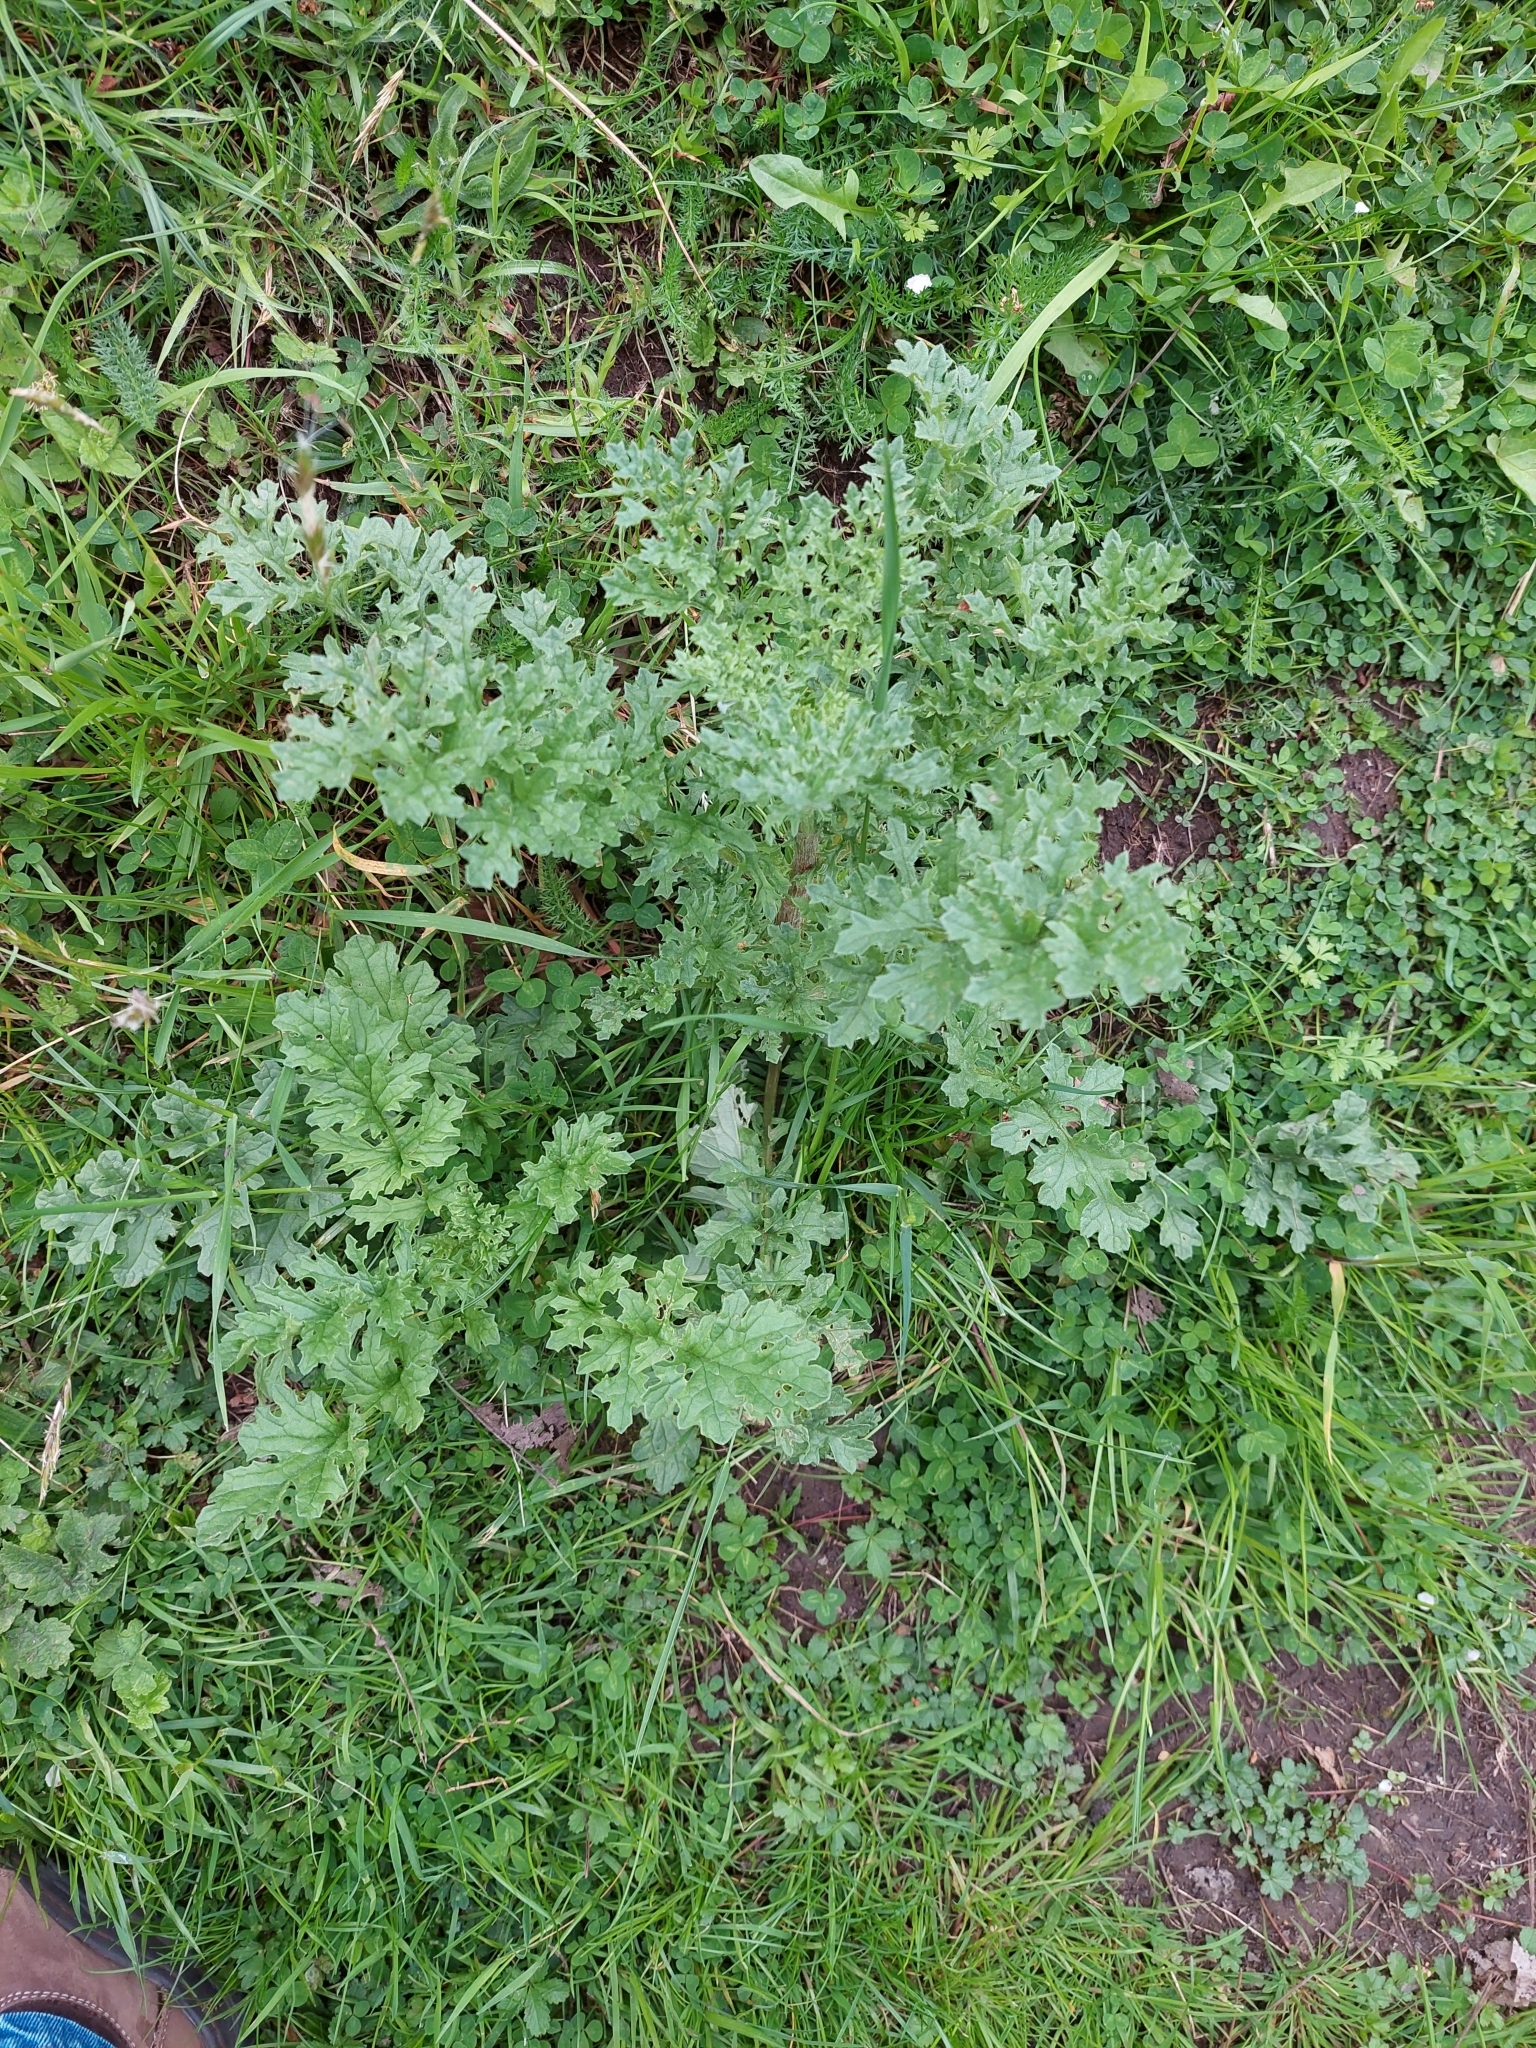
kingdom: Plantae
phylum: Tracheophyta
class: Magnoliopsida
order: Asterales
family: Asteraceae
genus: Jacobaea
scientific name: Jacobaea vulgaris
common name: Stinking willie
